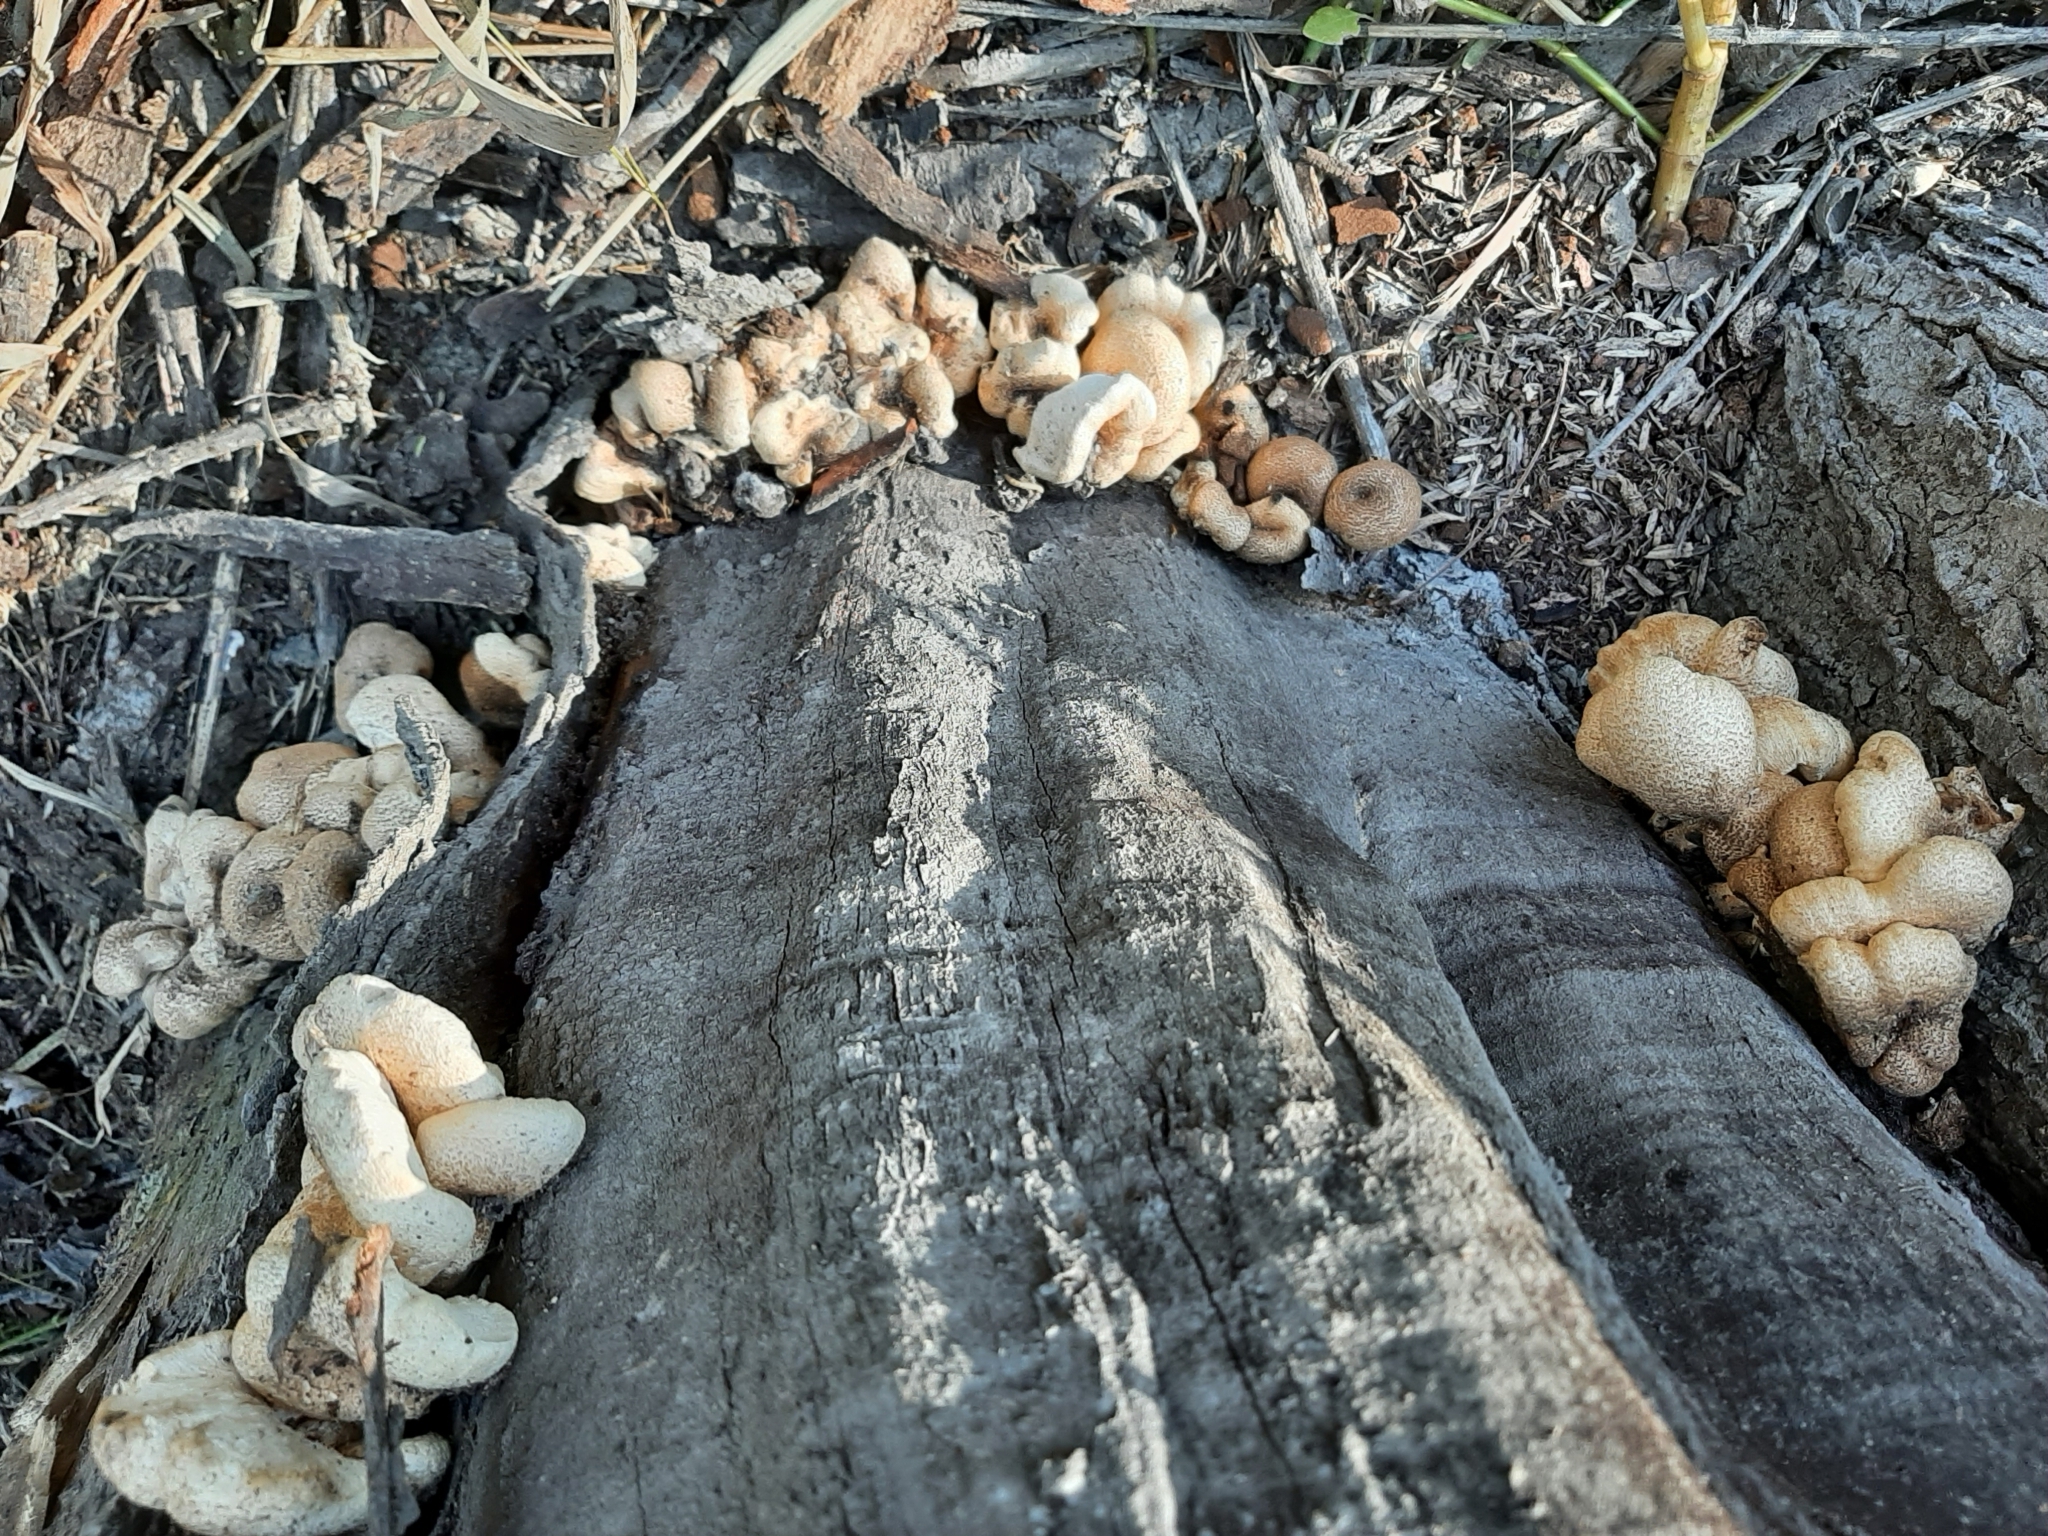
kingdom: Fungi
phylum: Basidiomycota
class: Agaricomycetes
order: Polyporales
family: Polyporaceae
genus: Lentinus
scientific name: Lentinus tigrinus
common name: Tiger sawgill
